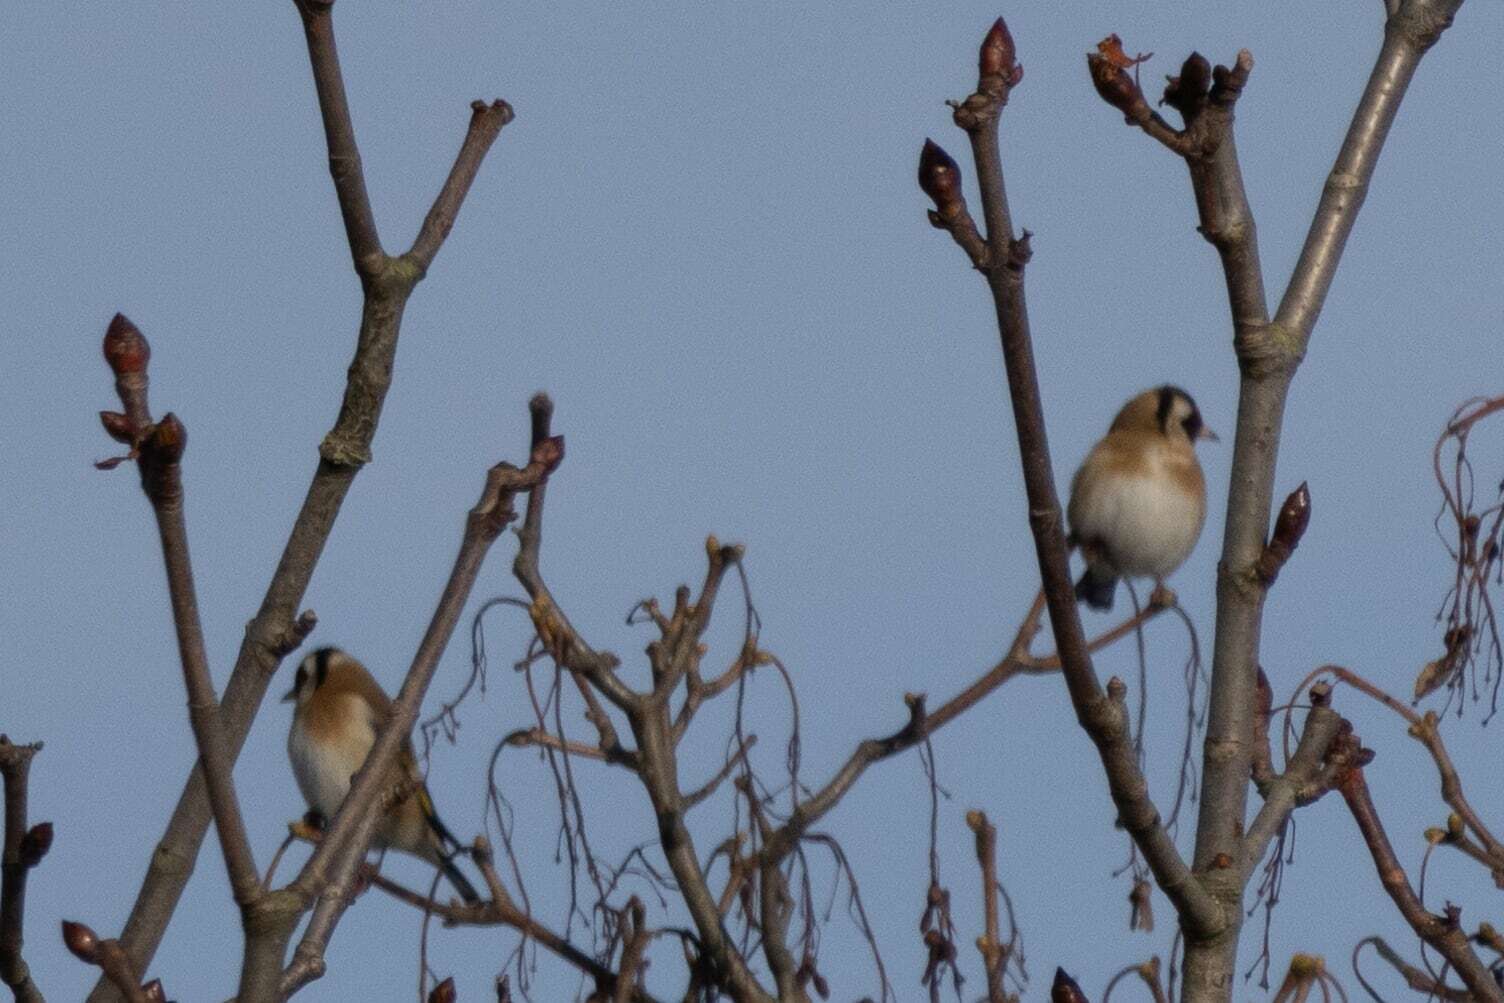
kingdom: Animalia
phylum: Chordata
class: Aves
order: Passeriformes
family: Fringillidae
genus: Carduelis
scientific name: Carduelis carduelis
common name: European goldfinch
